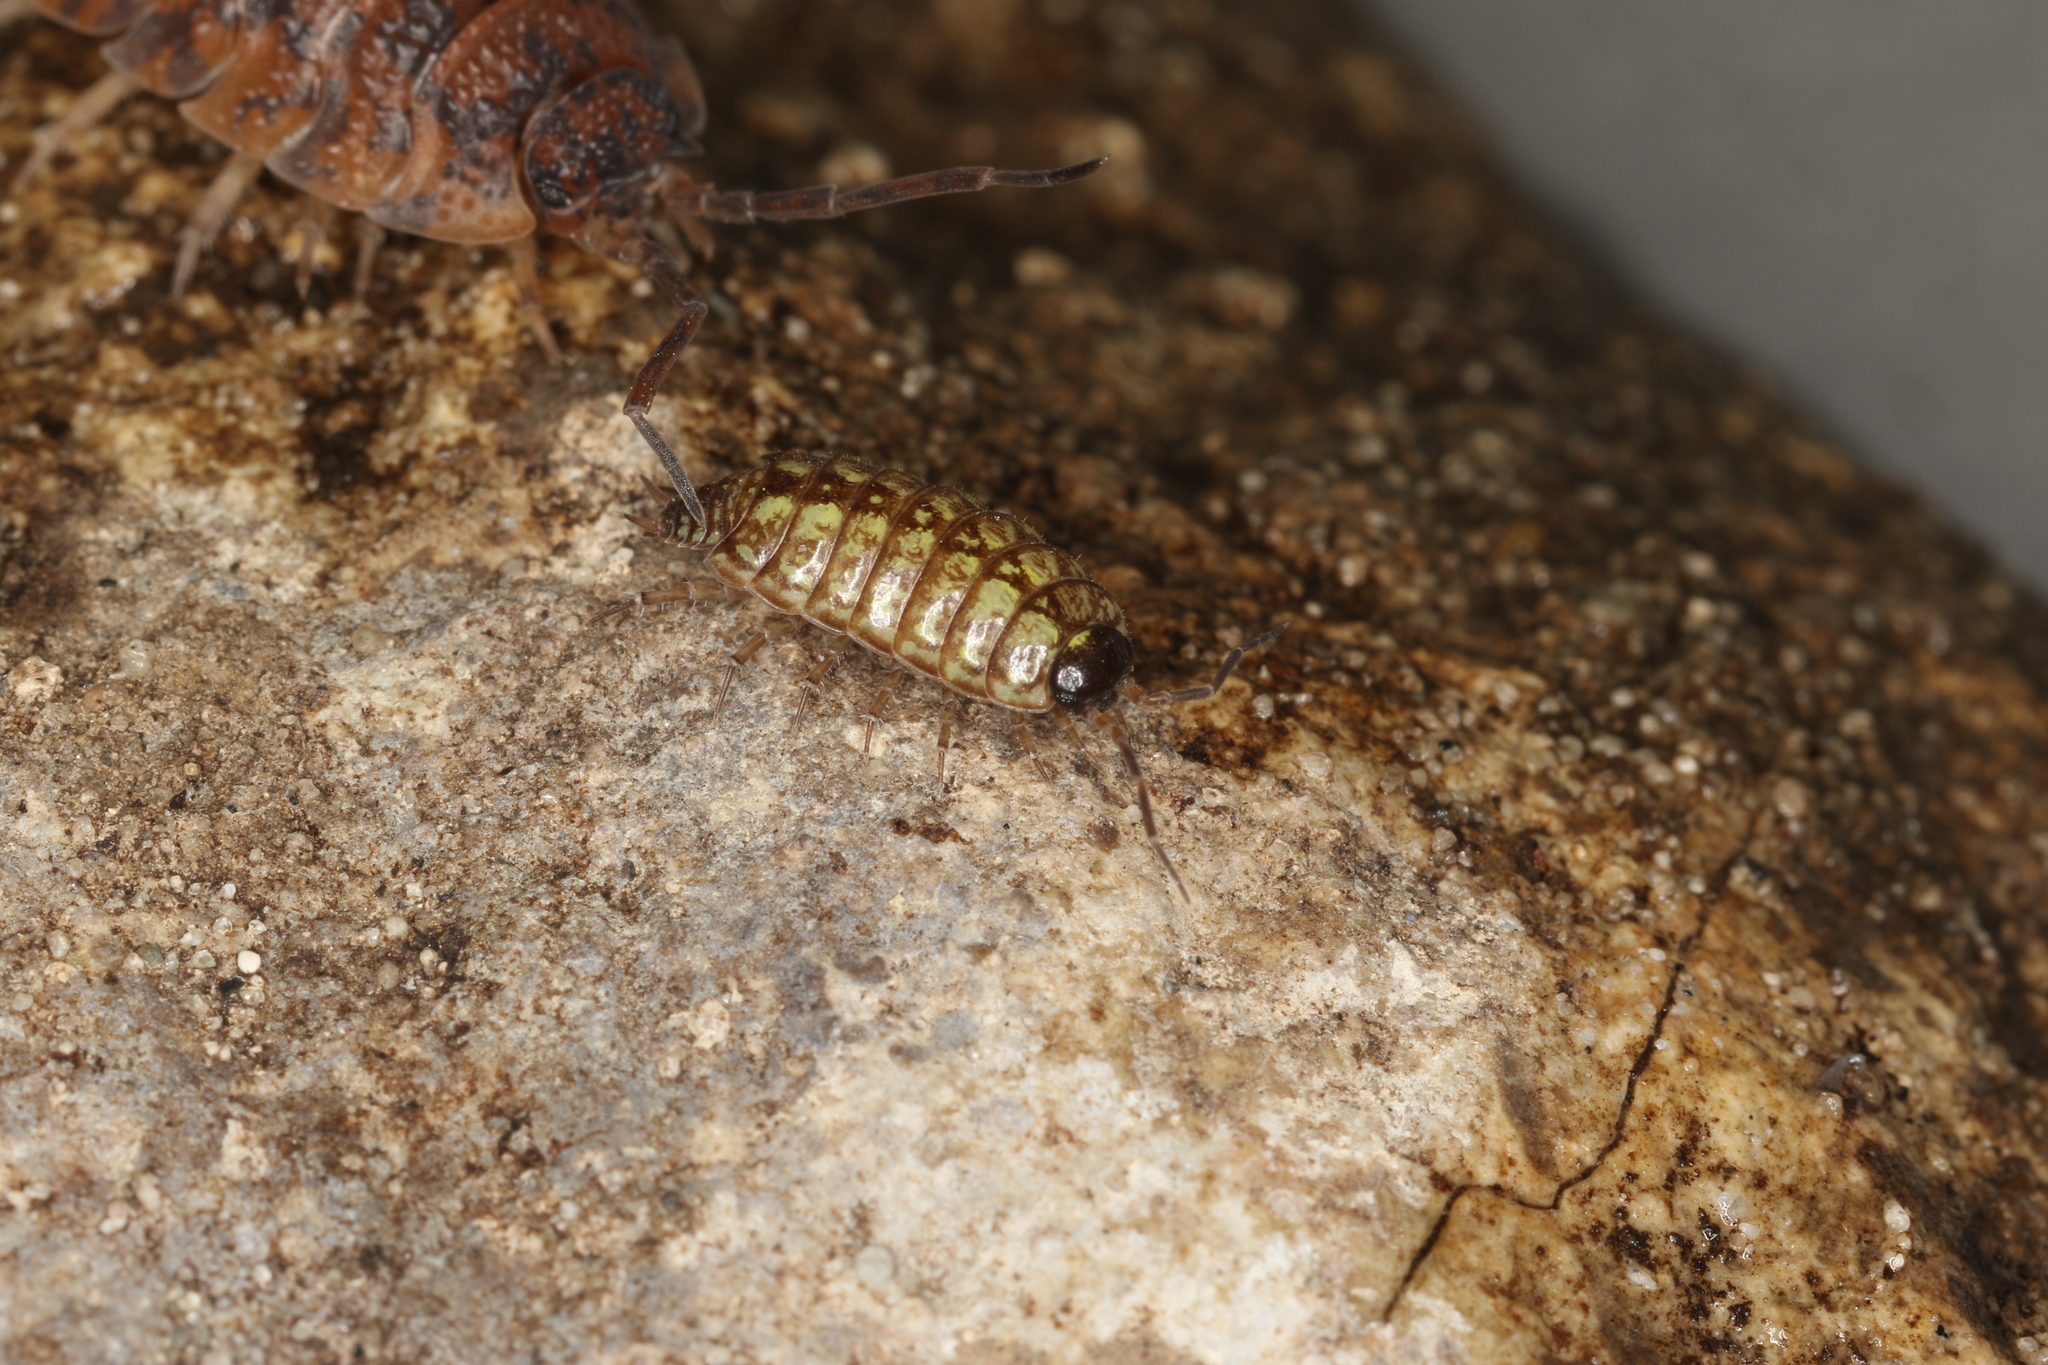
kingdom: Animalia
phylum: Arthropoda
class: Malacostraca
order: Isopoda
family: Philosciidae
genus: Philoscia
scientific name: Philoscia muscorum
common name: Common striped woodlouse
